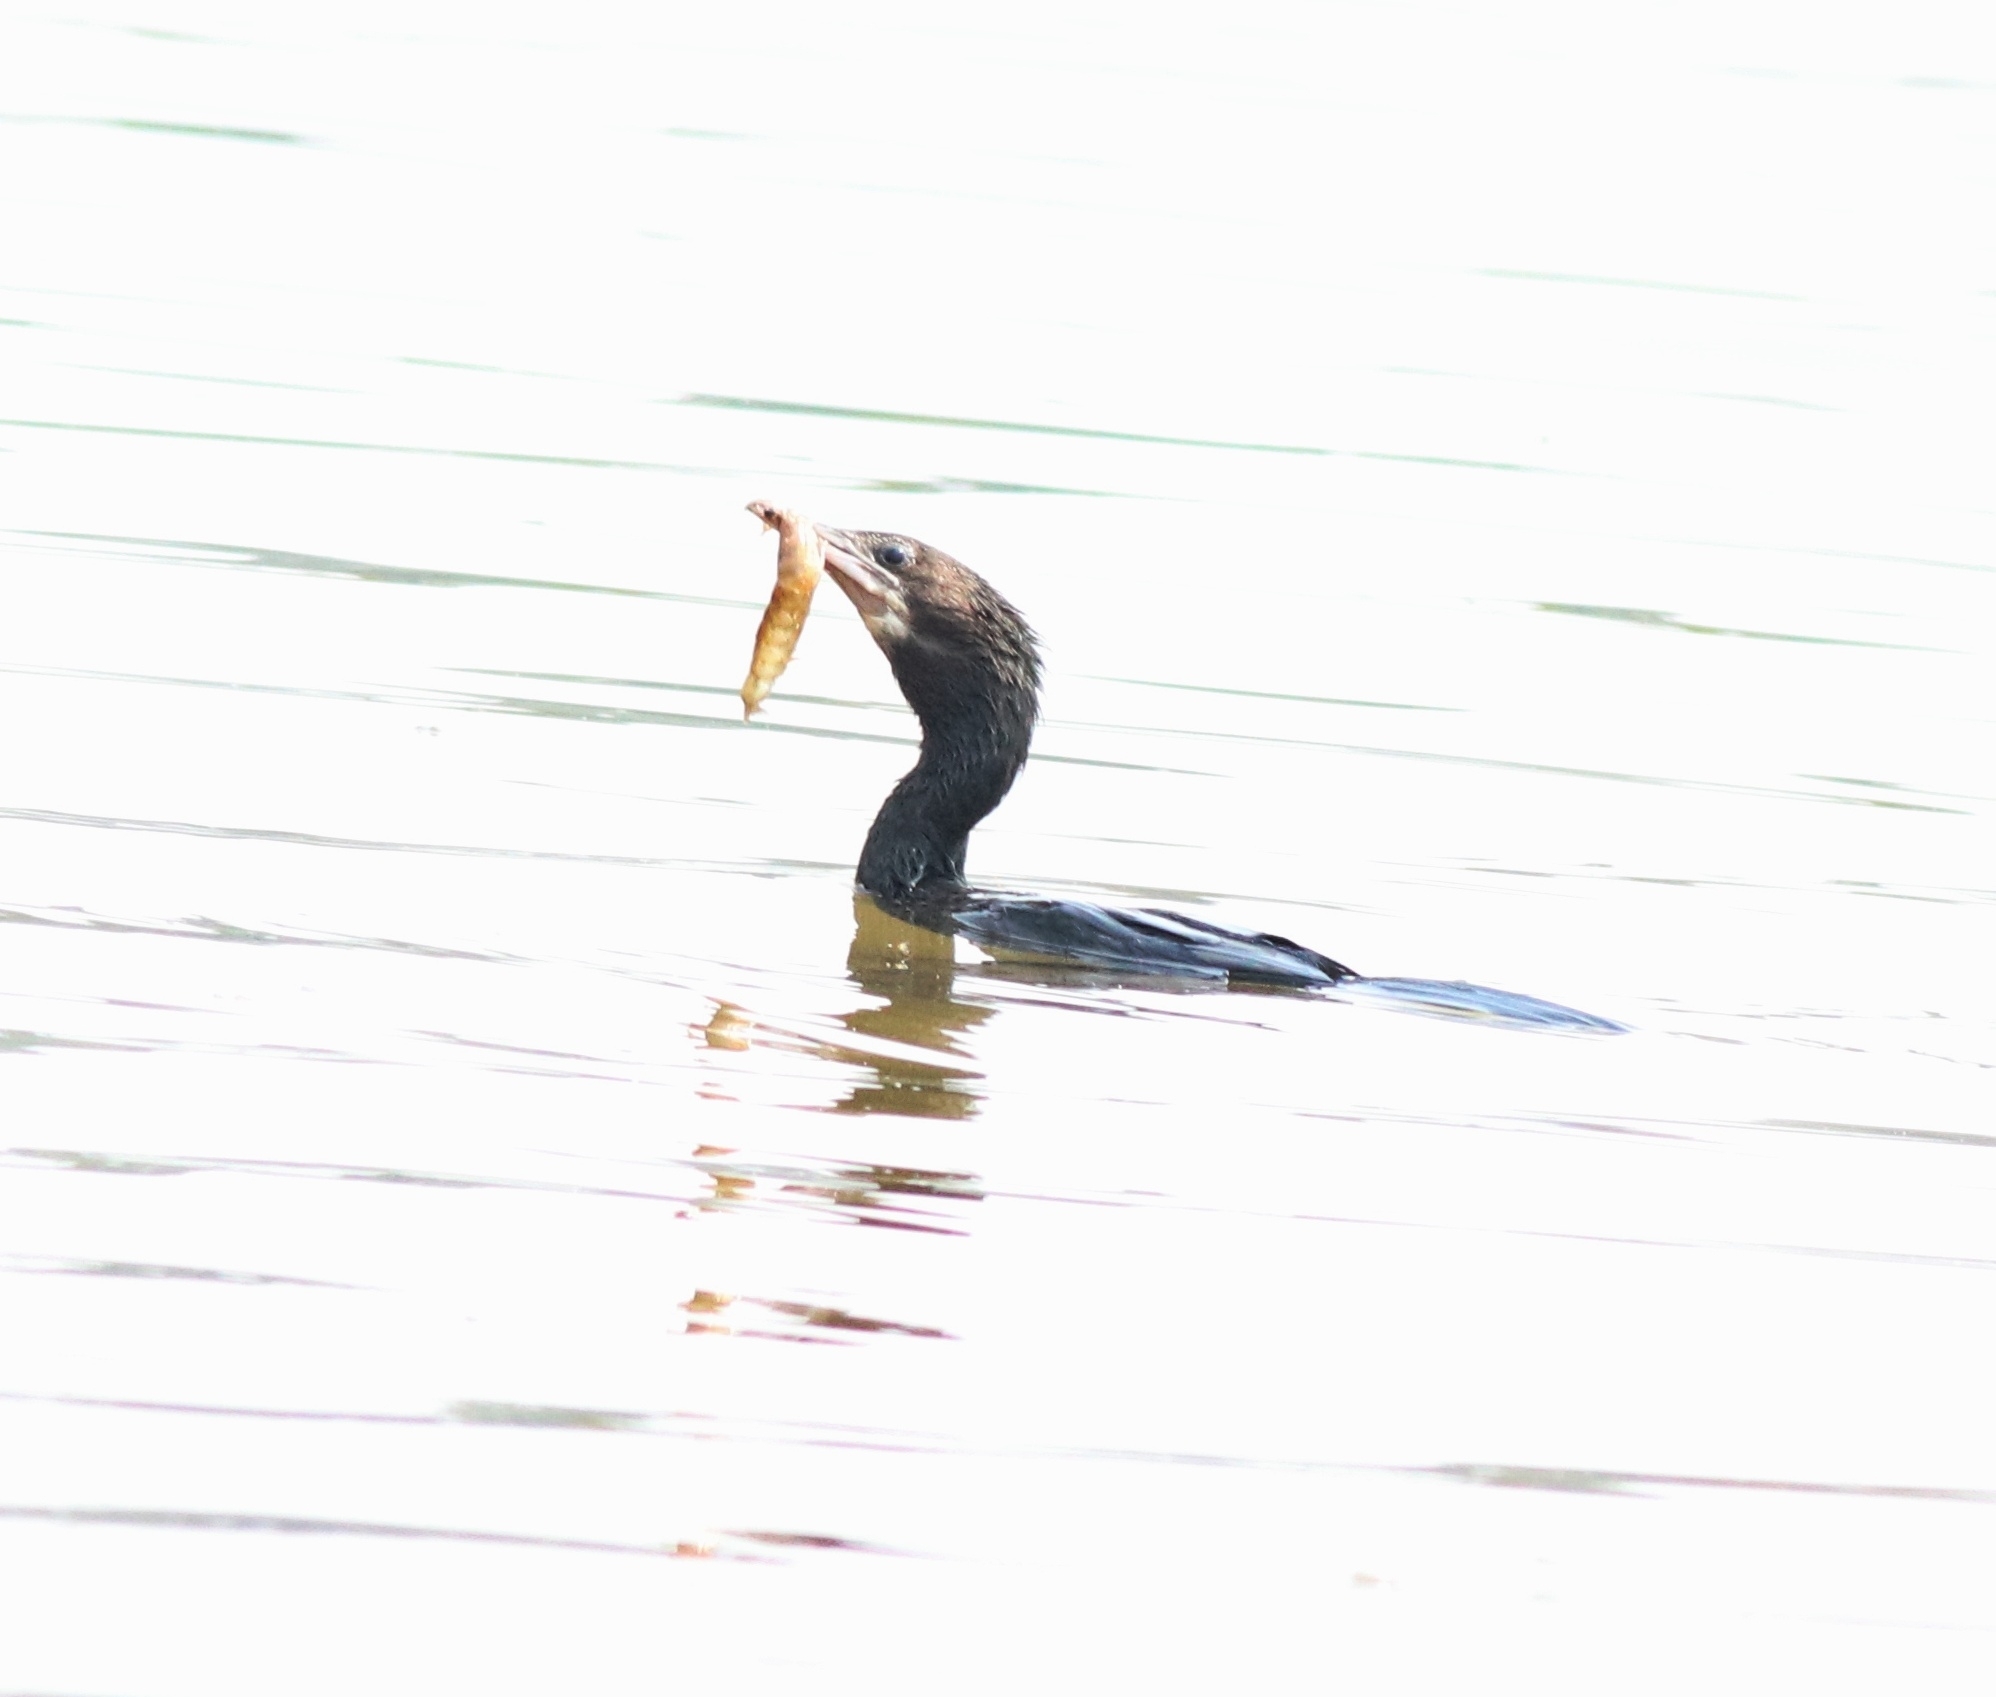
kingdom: Animalia
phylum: Chordata
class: Aves
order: Suliformes
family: Phalacrocoracidae
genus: Microcarbo
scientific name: Microcarbo niger
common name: Little cormorant
